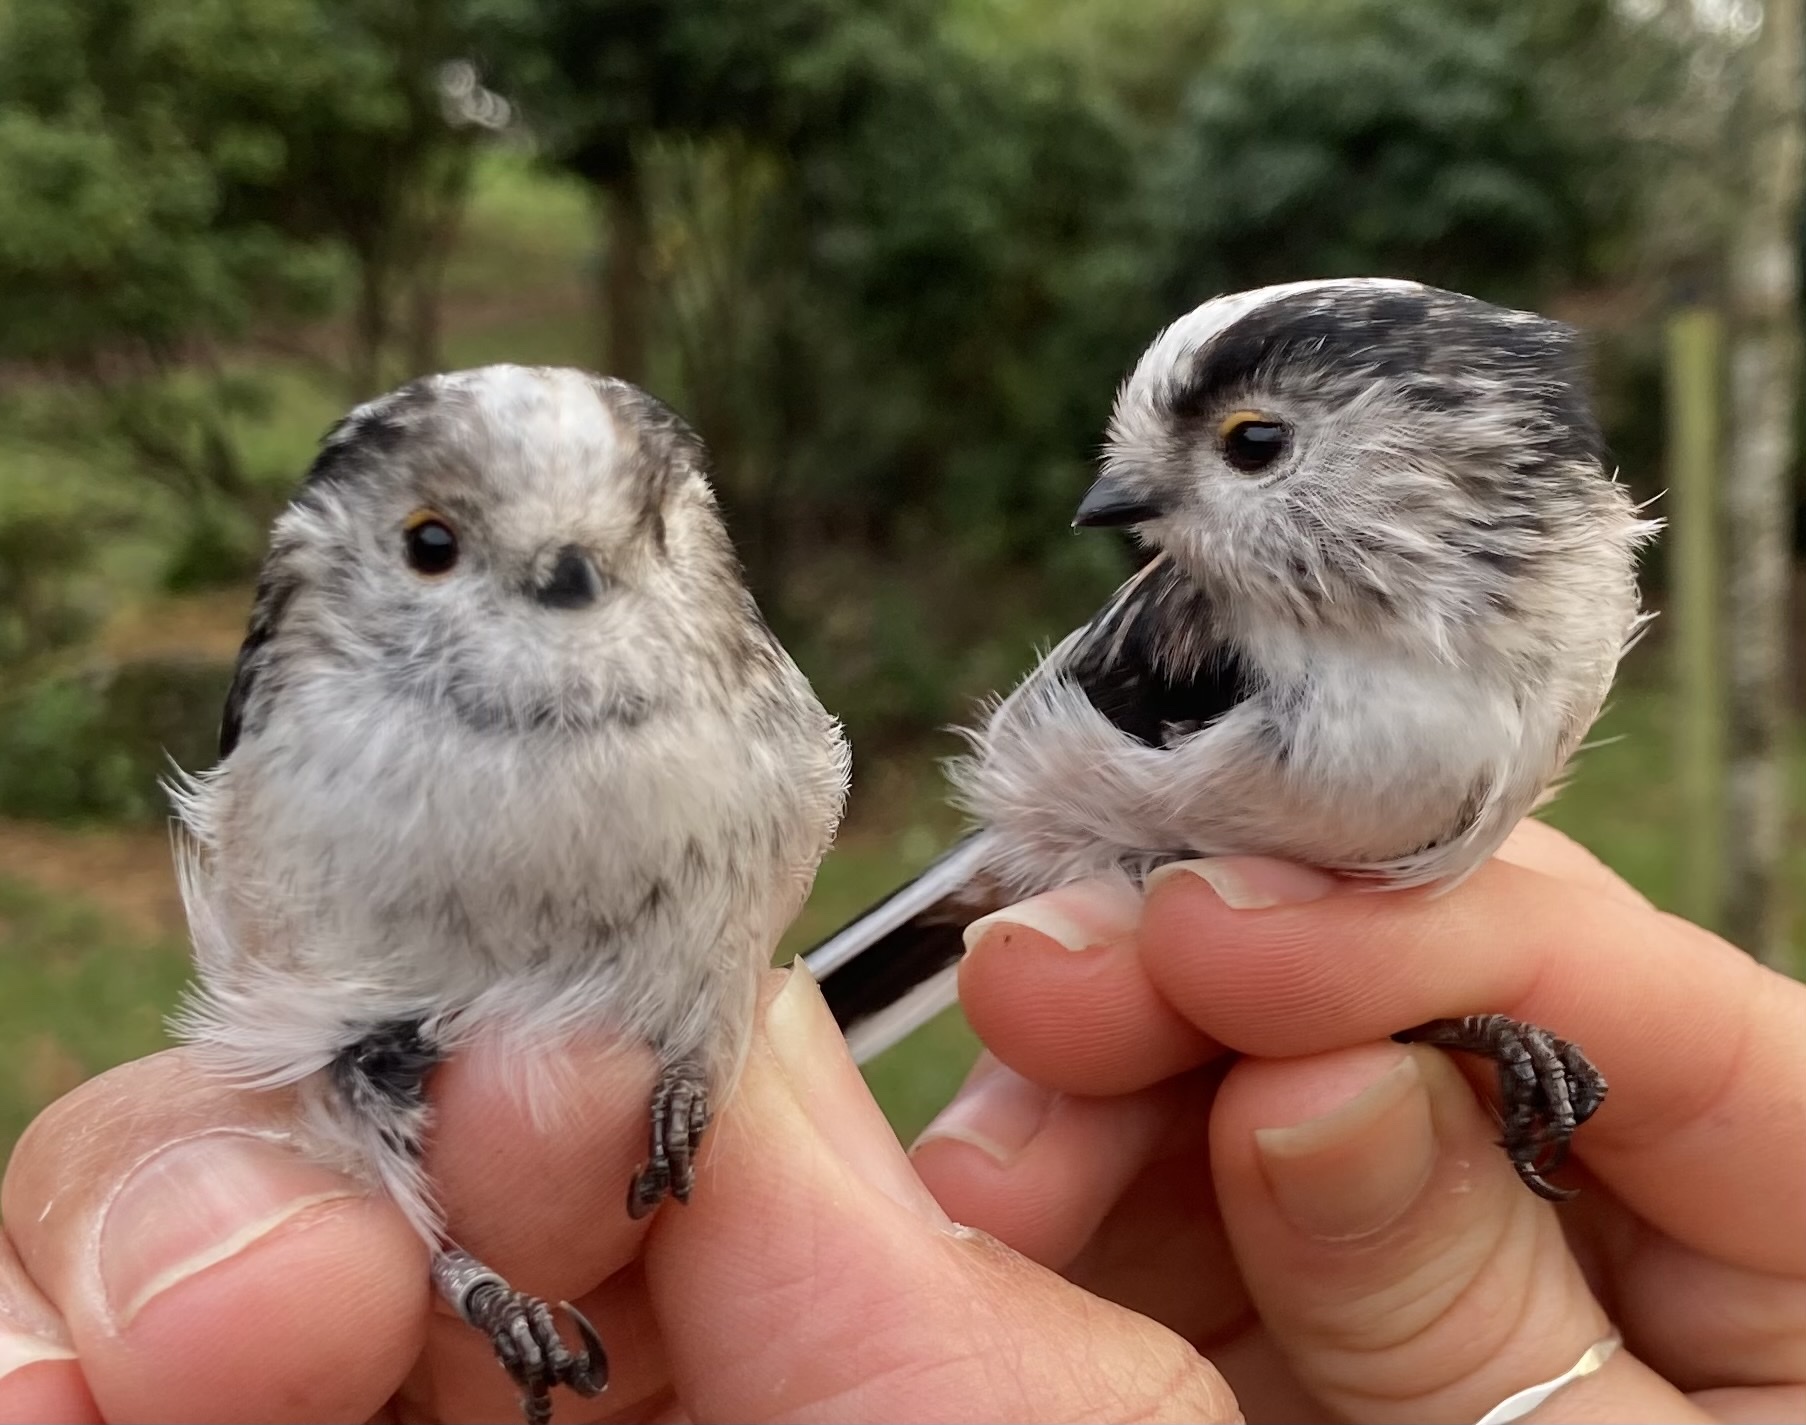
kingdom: Animalia
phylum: Chordata
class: Aves
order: Passeriformes
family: Aegithalidae
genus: Aegithalos
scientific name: Aegithalos caudatus
